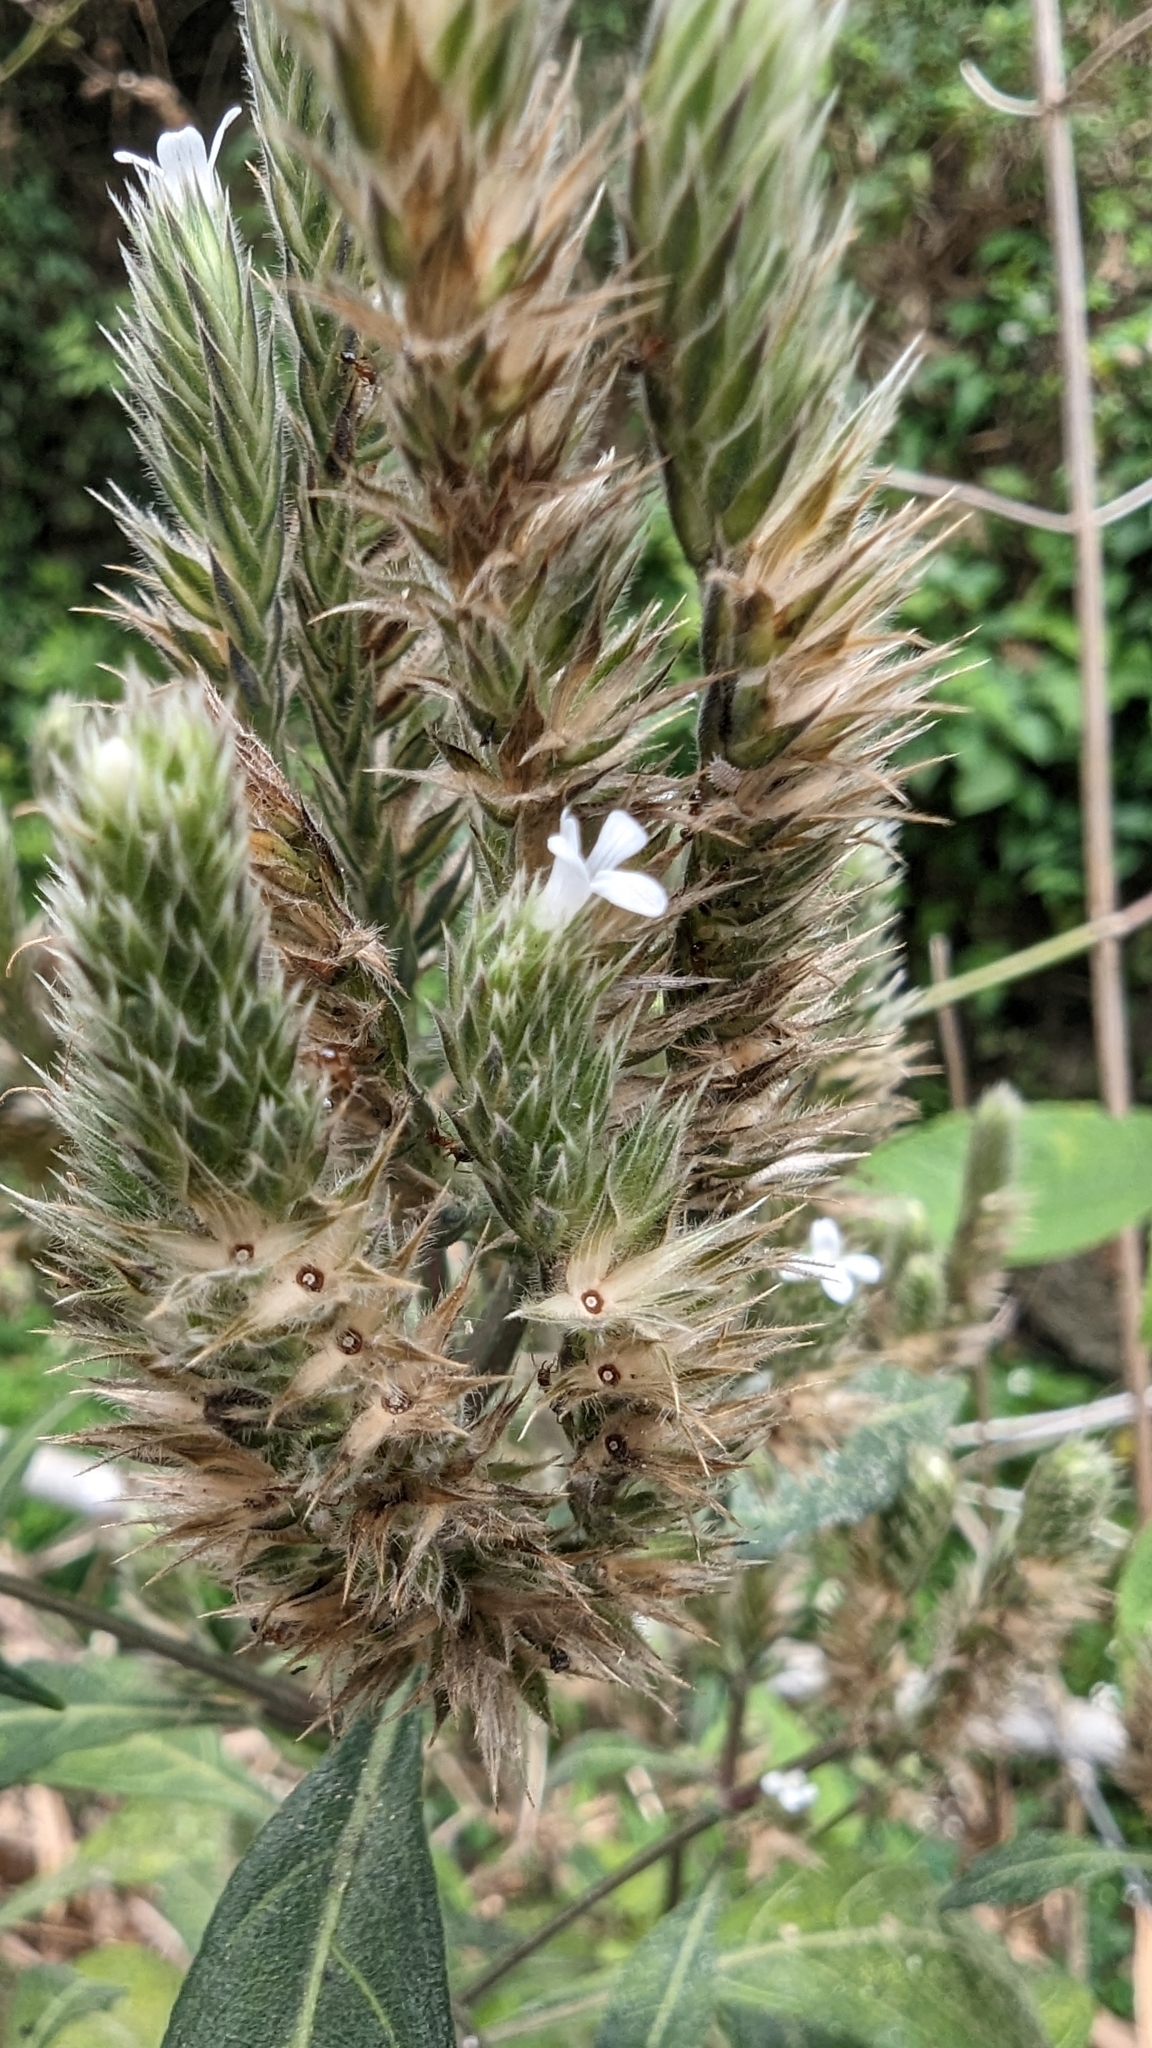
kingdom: Plantae
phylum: Tracheophyta
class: Magnoliopsida
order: Lamiales
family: Acanthaceae
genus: Lepidagathis
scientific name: Lepidagathis formosensis
